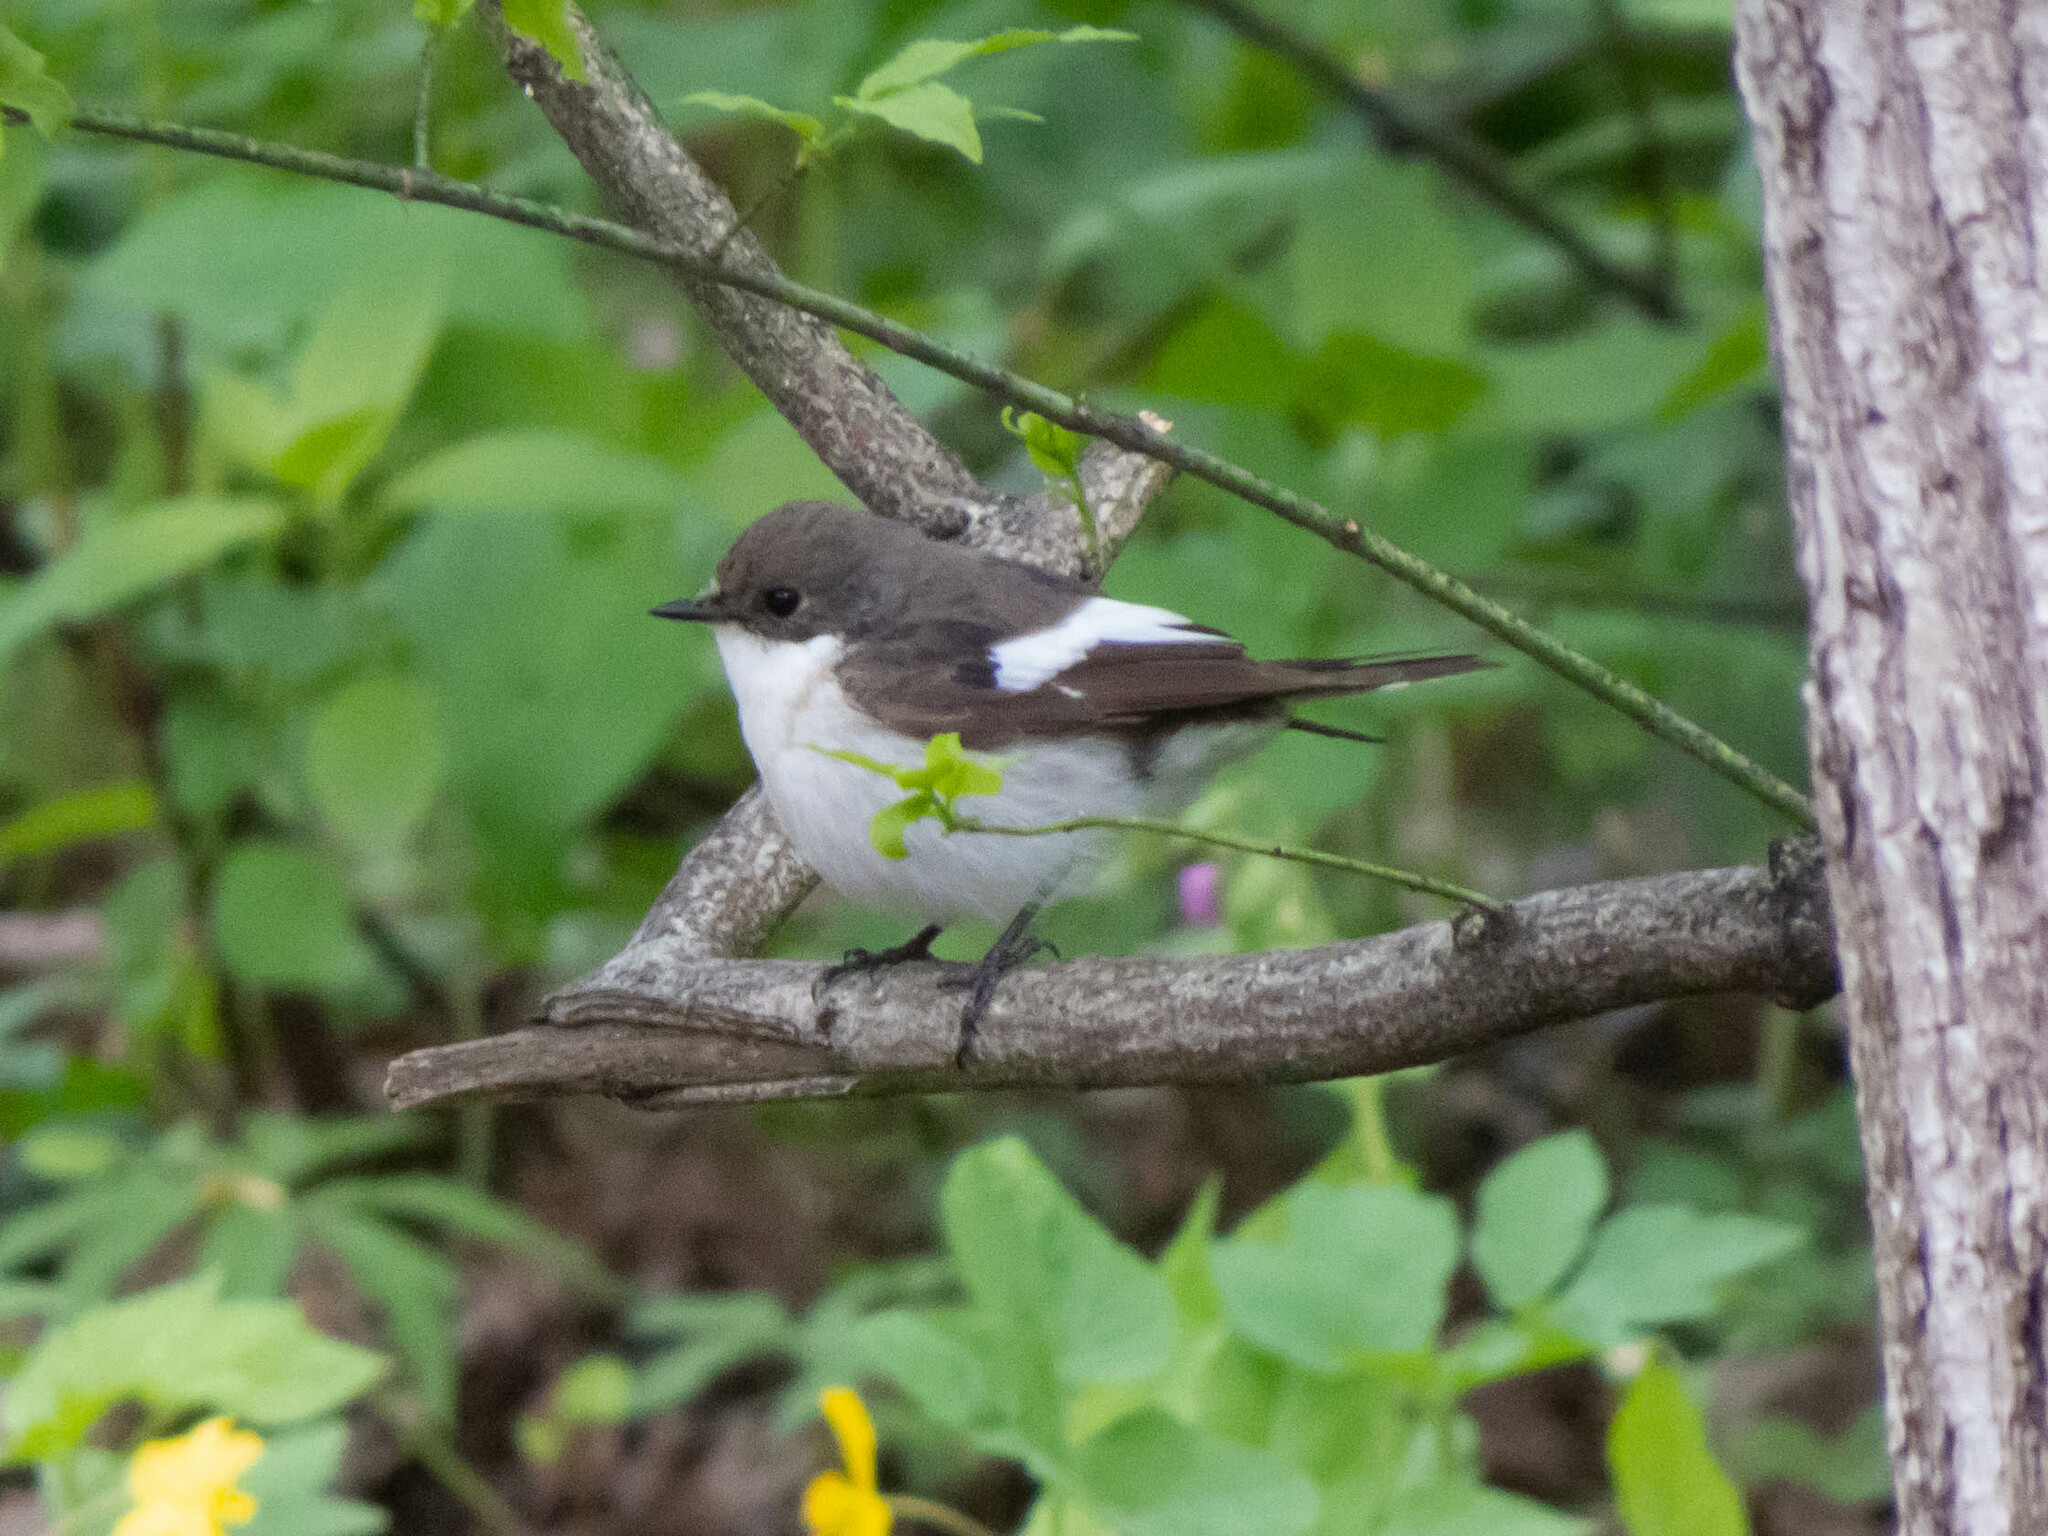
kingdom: Animalia
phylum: Chordata
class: Aves
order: Passeriformes
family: Muscicapidae
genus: Ficedula
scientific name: Ficedula hypoleuca
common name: European pied flycatcher
